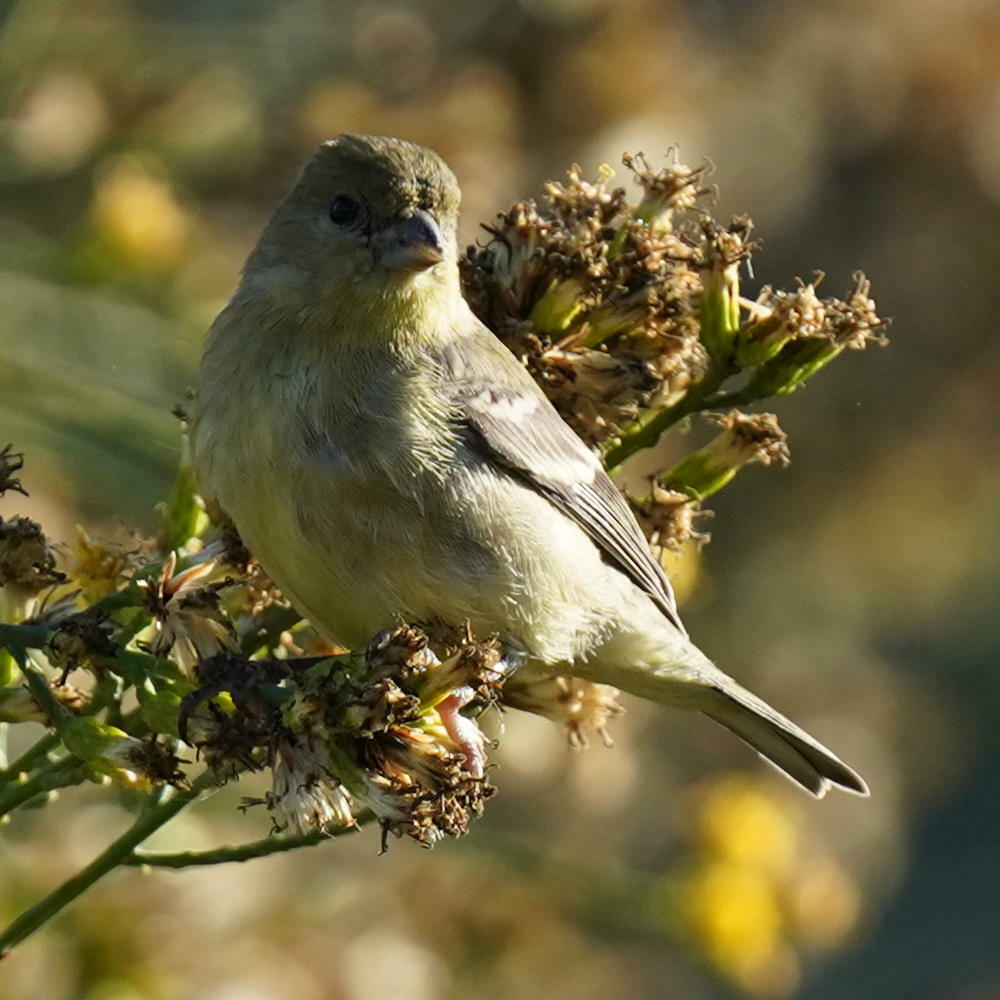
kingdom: Animalia
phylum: Chordata
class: Aves
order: Passeriformes
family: Fringillidae
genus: Spinus
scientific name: Spinus psaltria
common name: Lesser goldfinch
